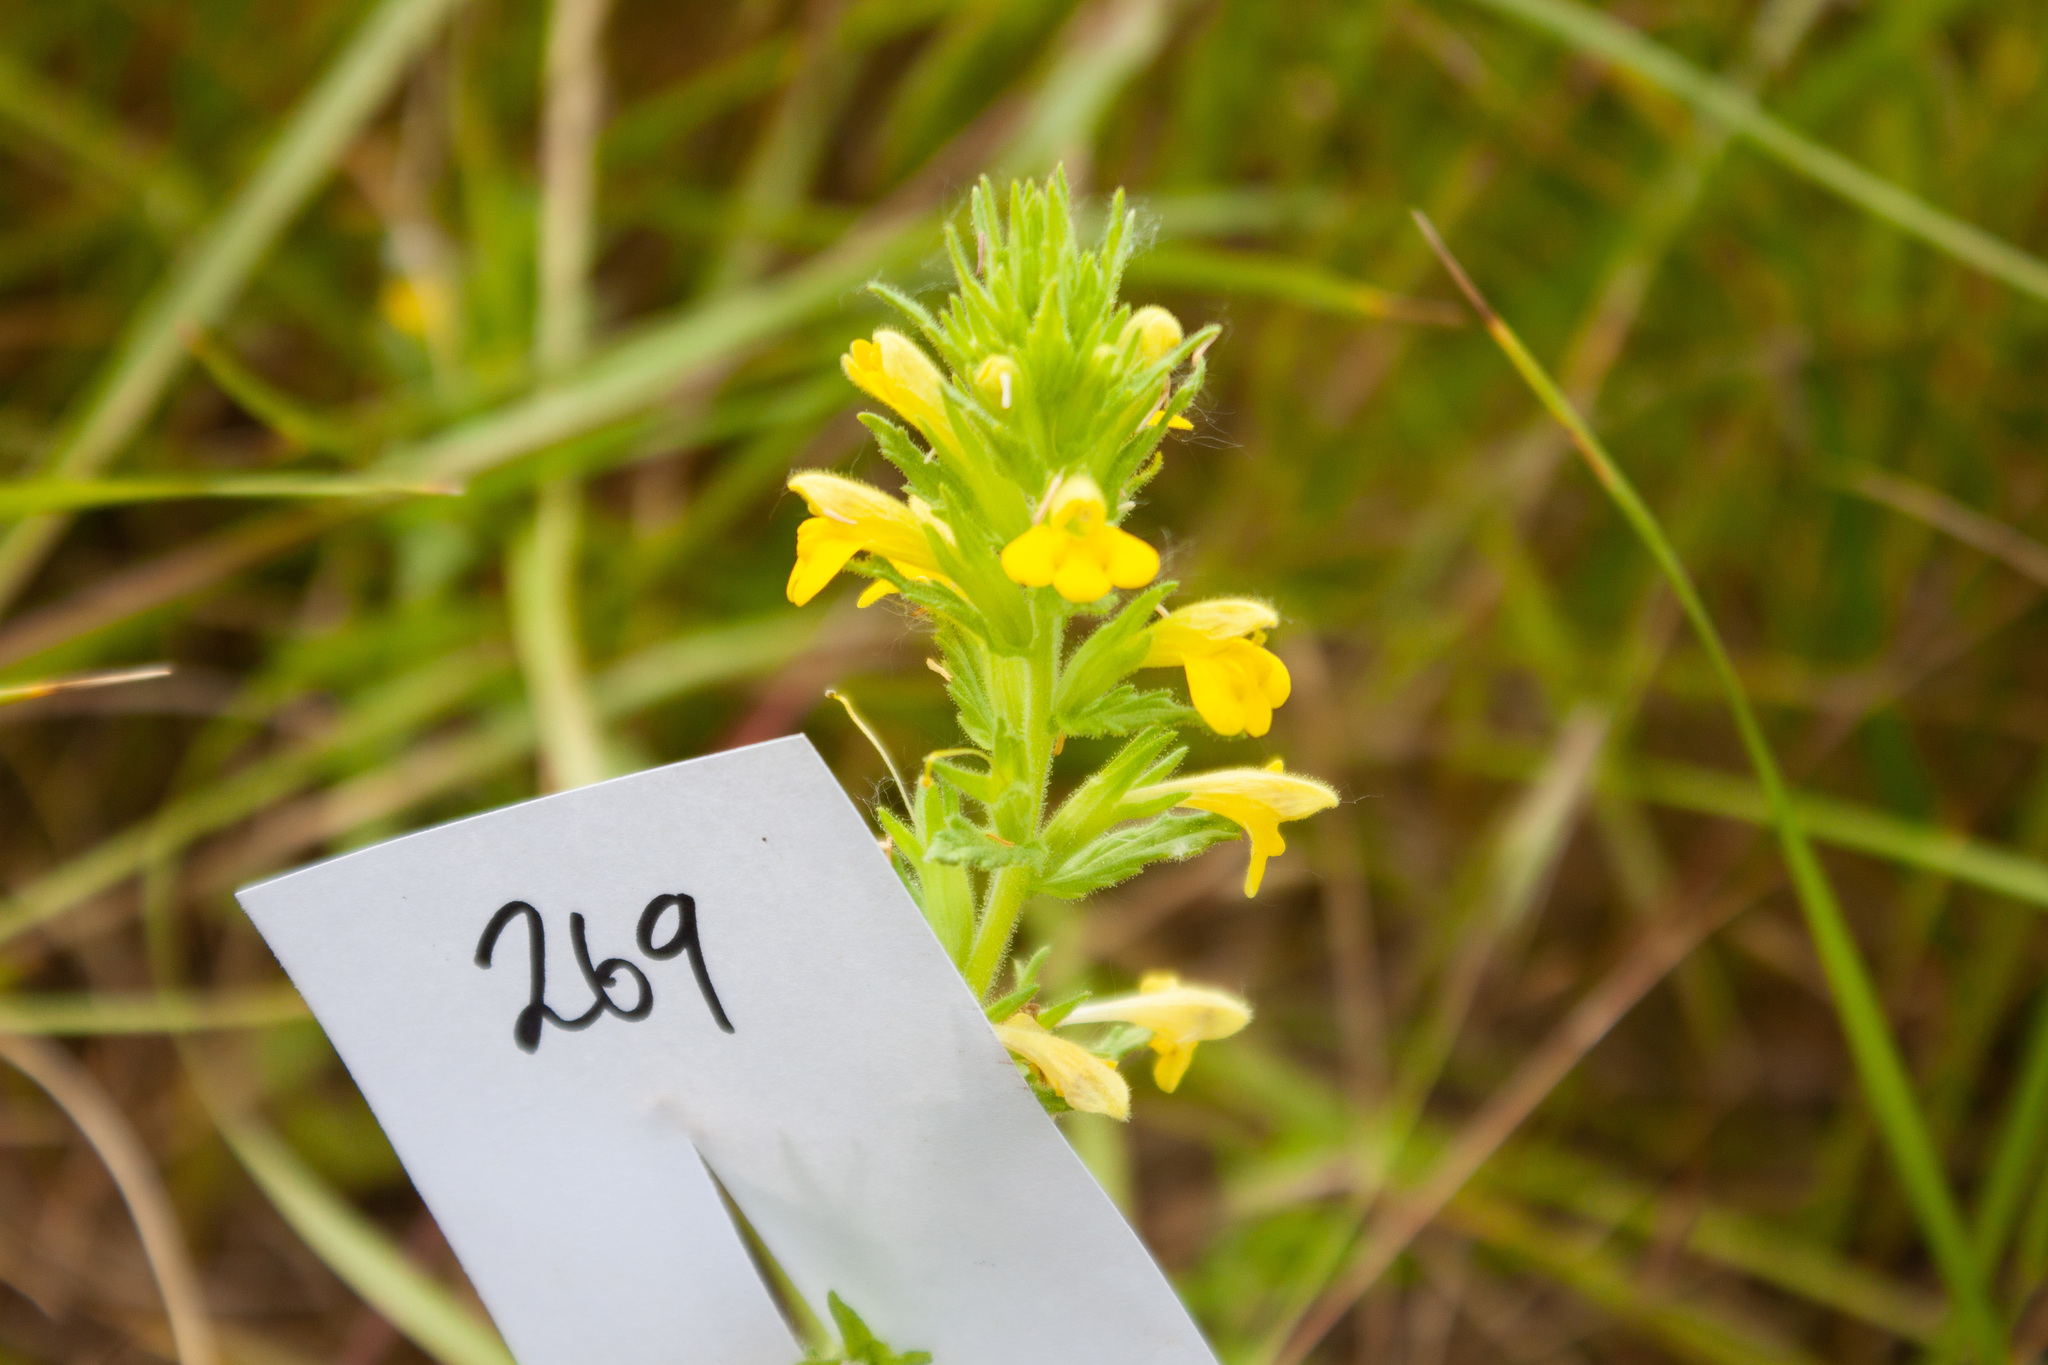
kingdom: Plantae
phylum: Tracheophyta
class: Magnoliopsida
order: Lamiales
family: Orobanchaceae
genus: Bellardia
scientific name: Bellardia viscosa
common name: Sticky parentucellia
